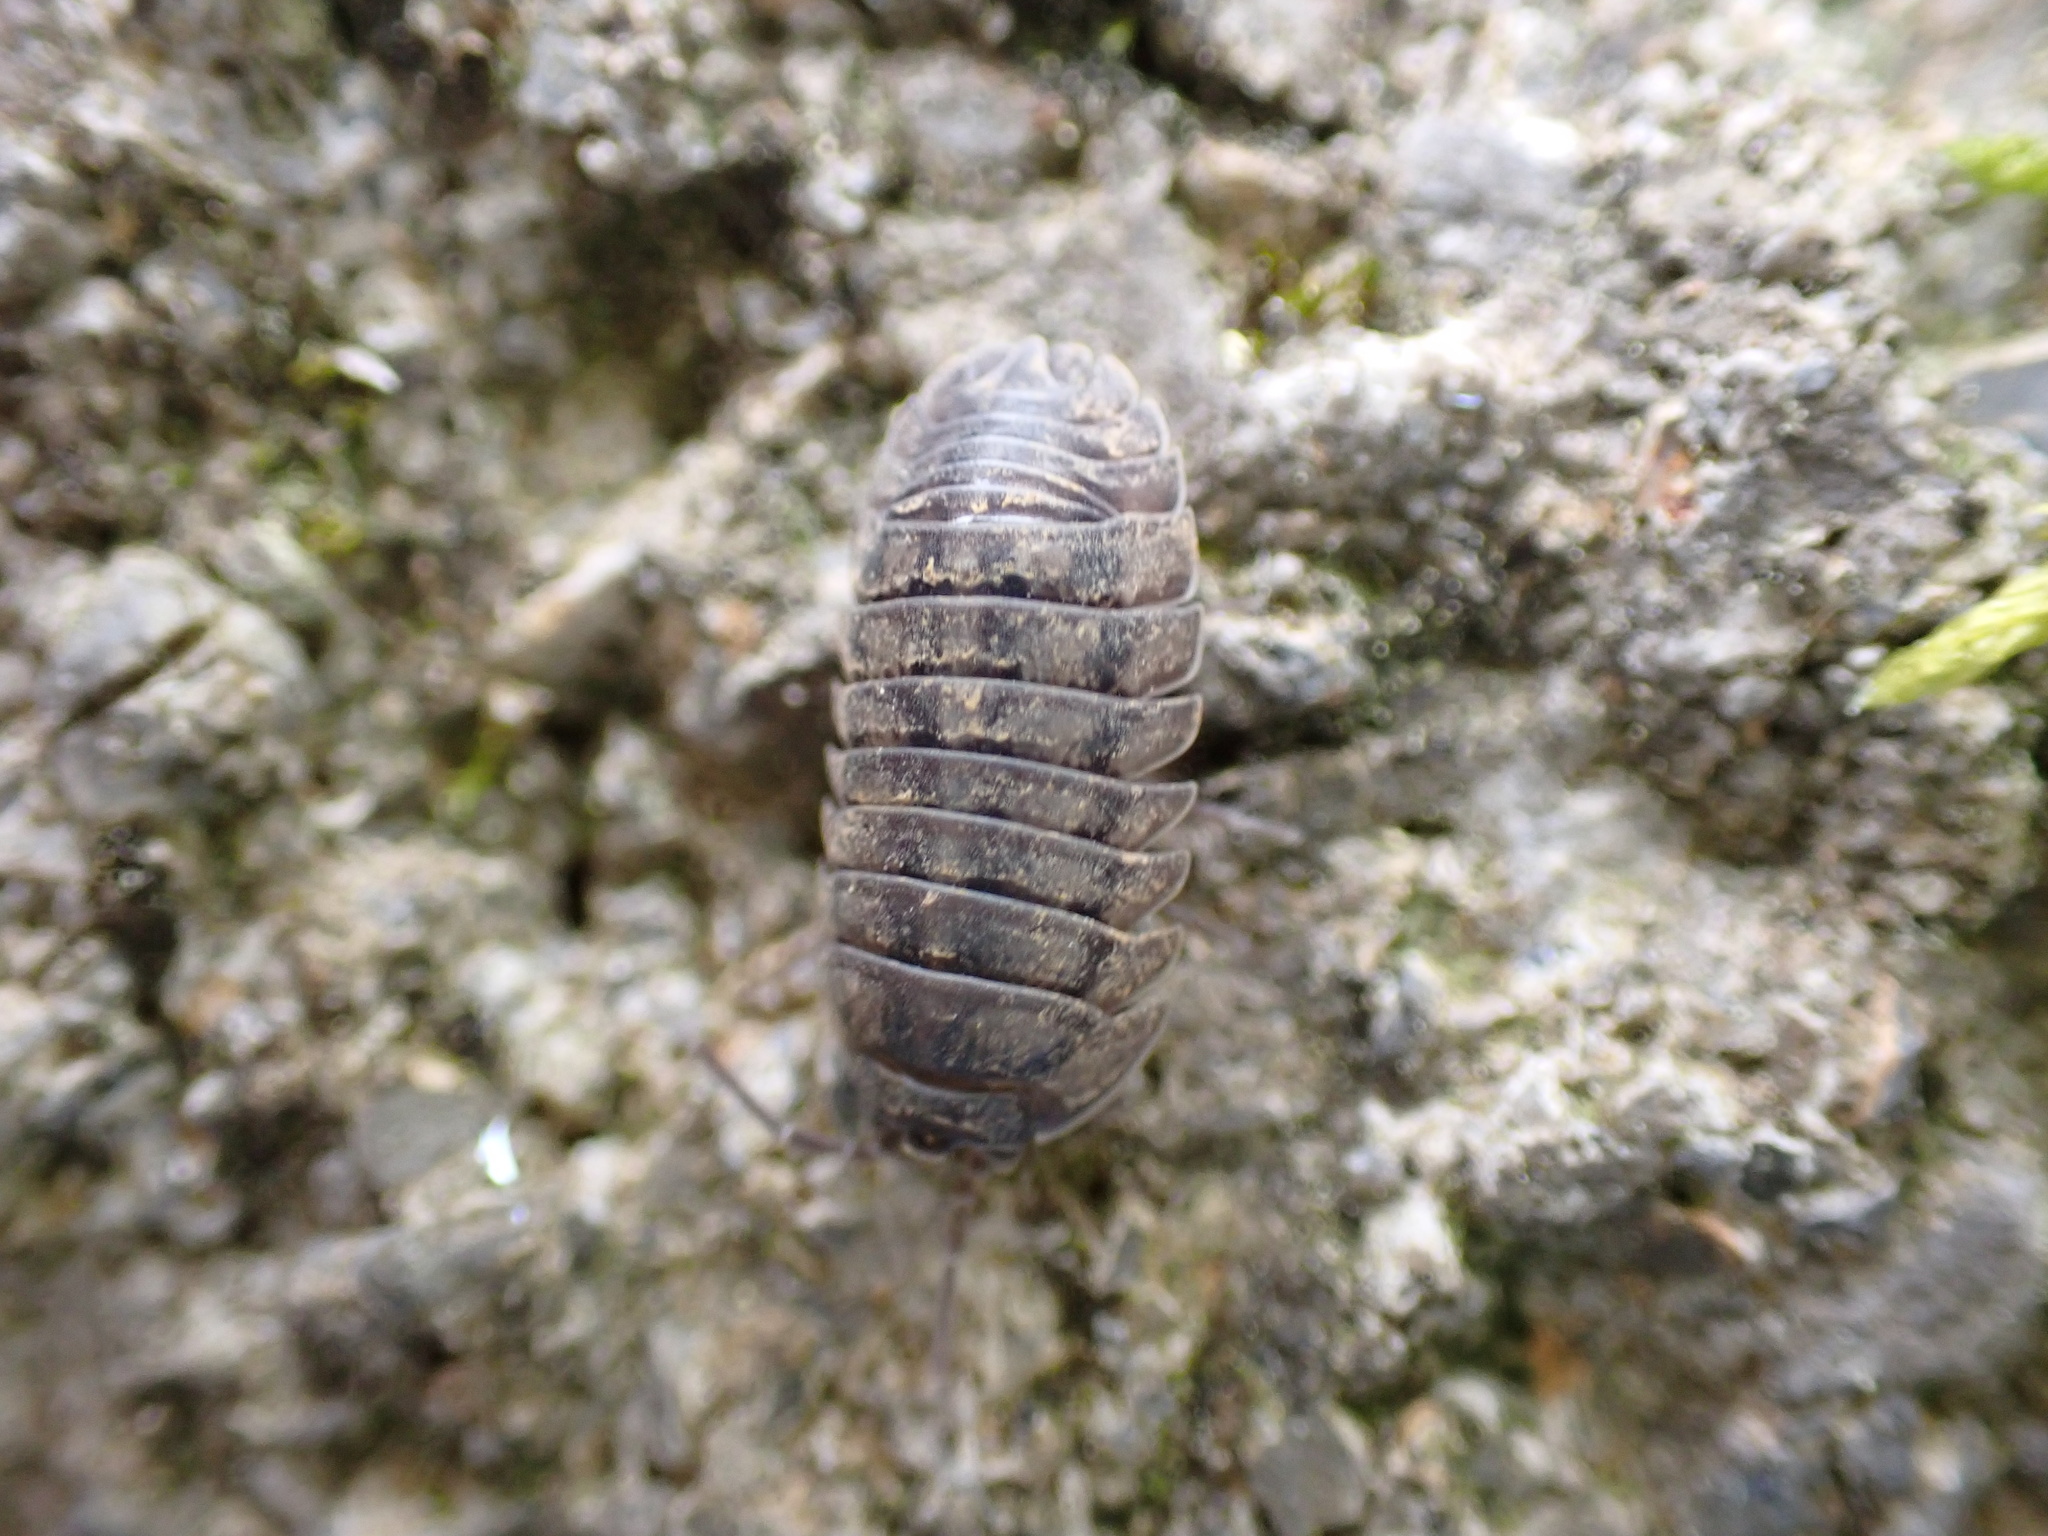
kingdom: Animalia
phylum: Arthropoda
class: Malacostraca
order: Isopoda
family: Armadillidiidae
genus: Armadillidium
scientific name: Armadillidium nasatum
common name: Isopod
